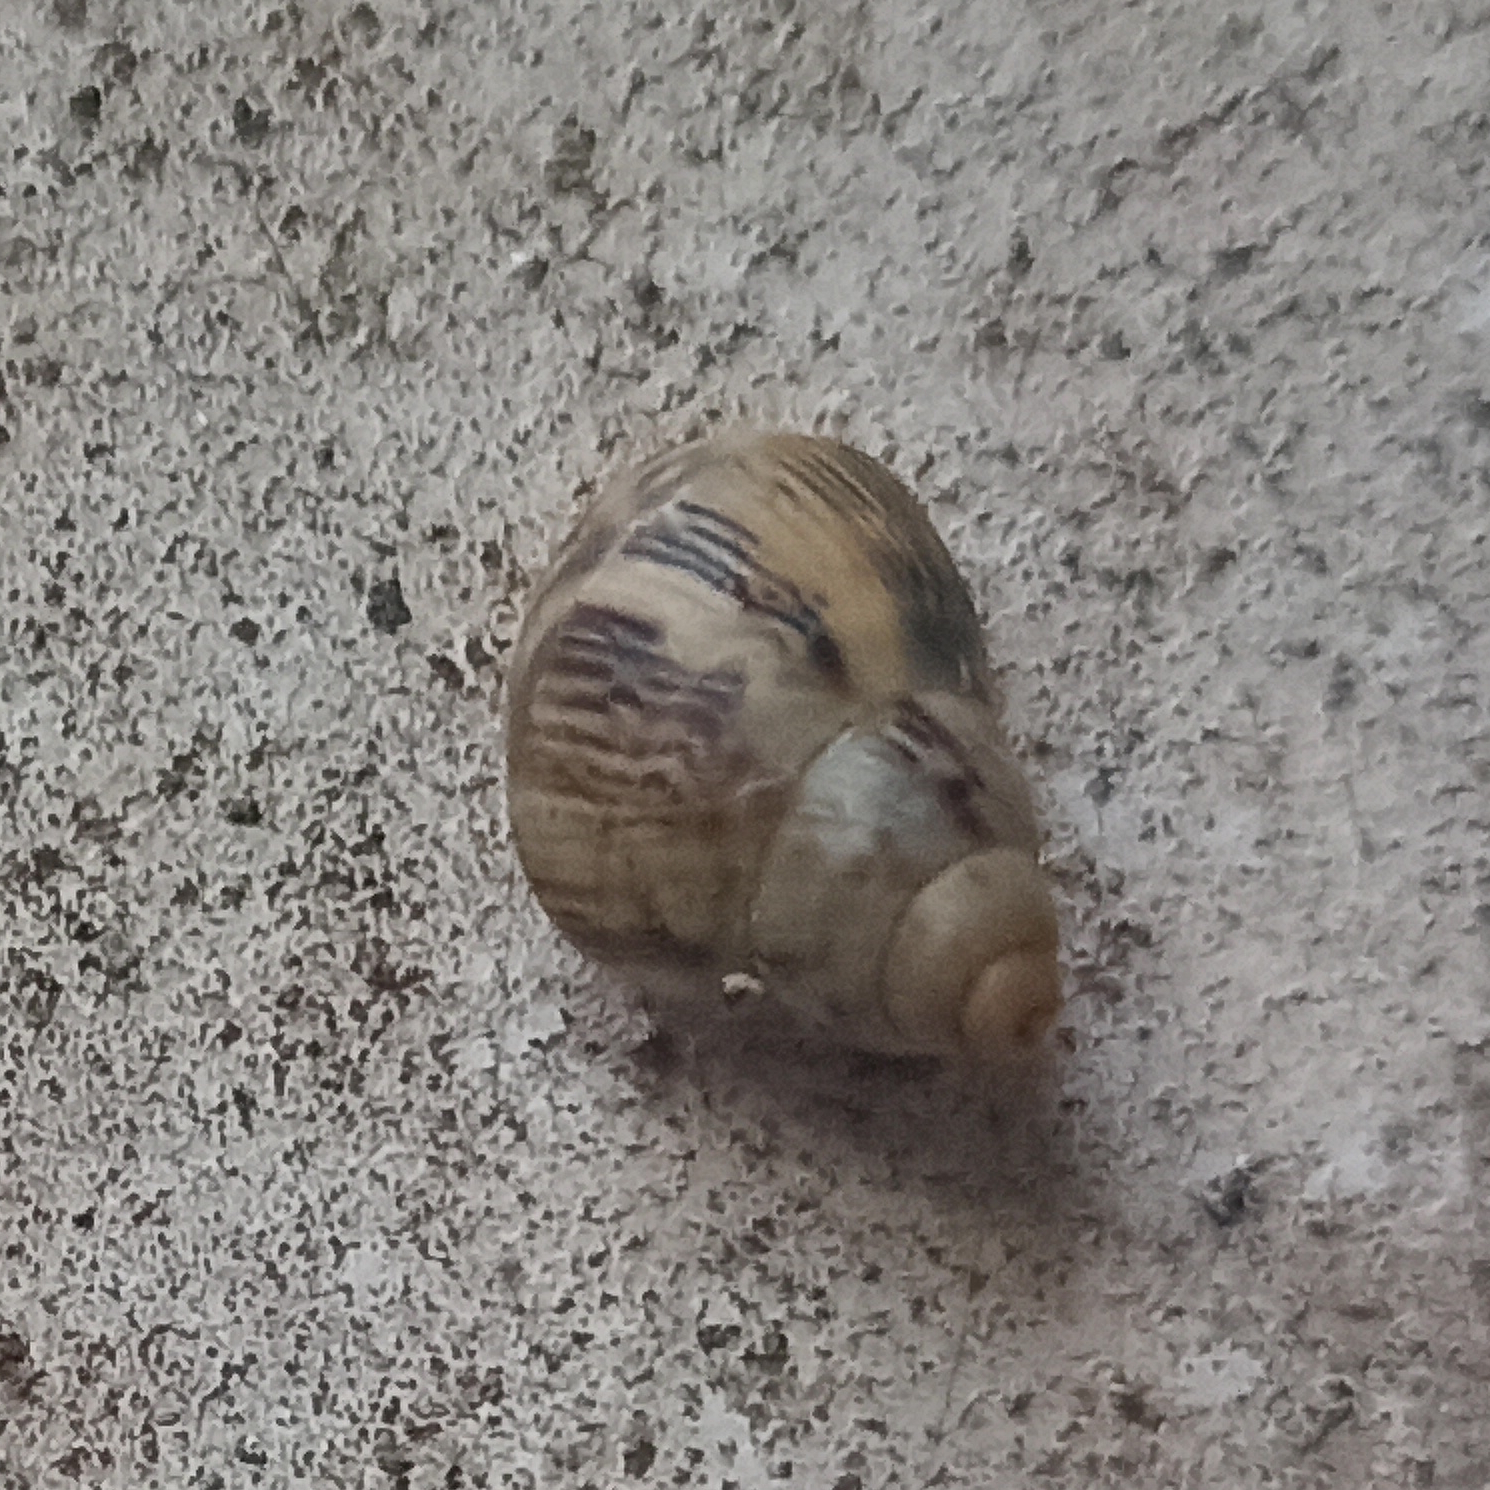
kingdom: Animalia
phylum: Mollusca
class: Gastropoda
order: Stylommatophora
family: Bulimulidae
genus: Drymaeus
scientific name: Drymaeus papyraceus
